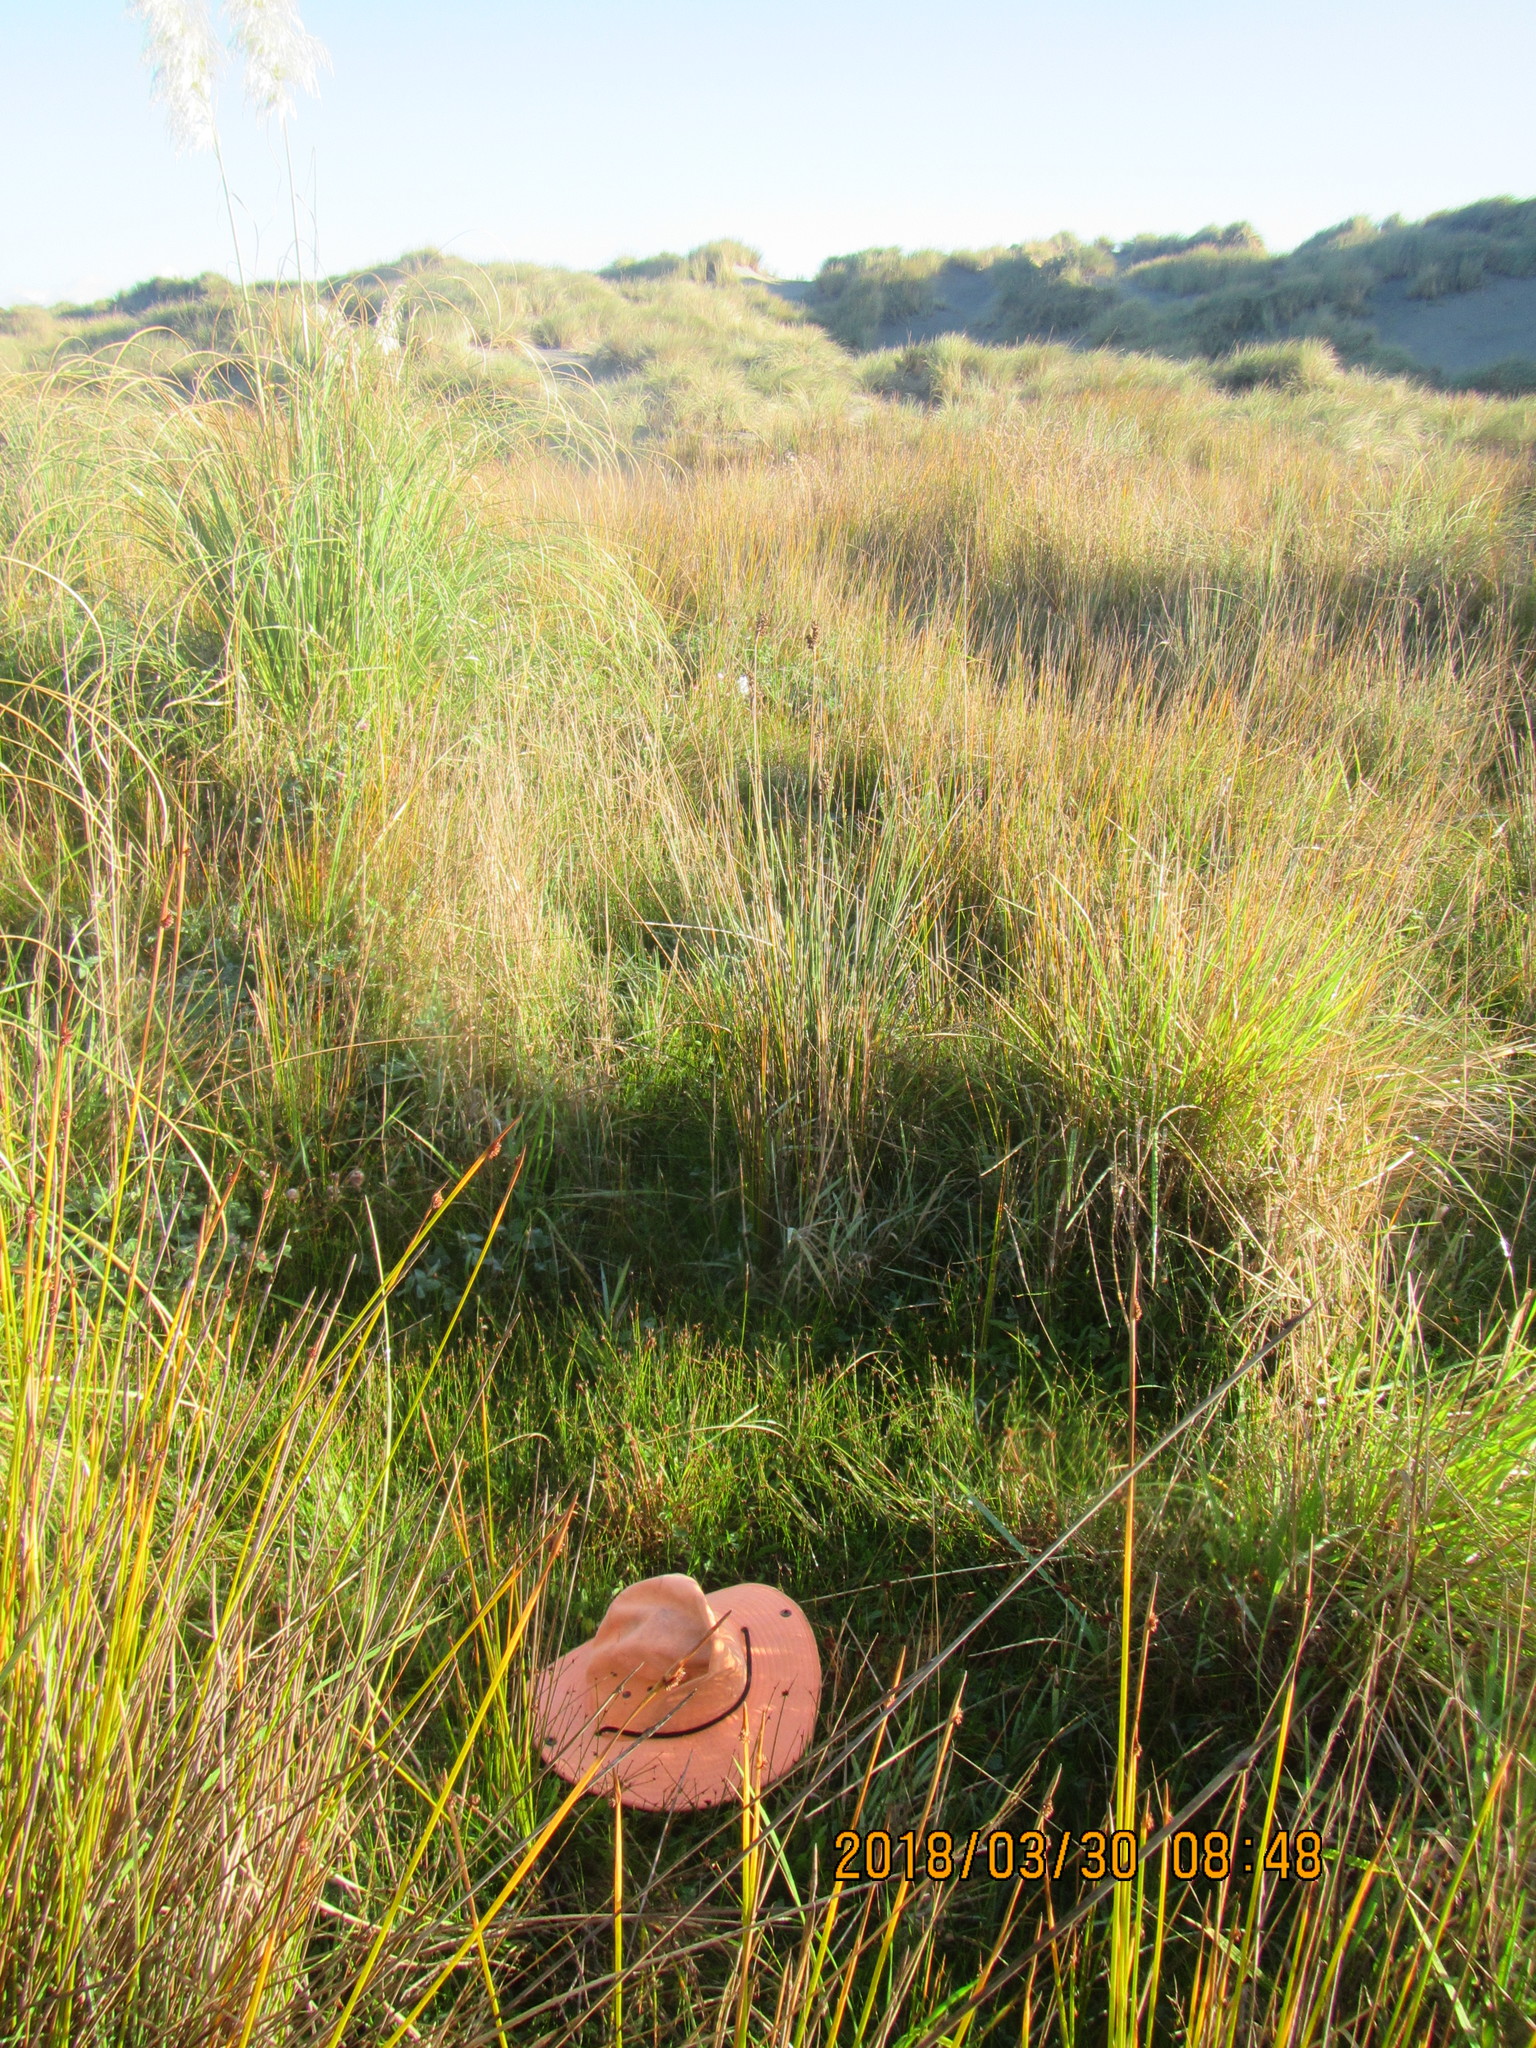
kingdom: Plantae
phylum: Tracheophyta
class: Liliopsida
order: Poales
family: Juncaceae
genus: Juncus
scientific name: Juncus caespiticius
